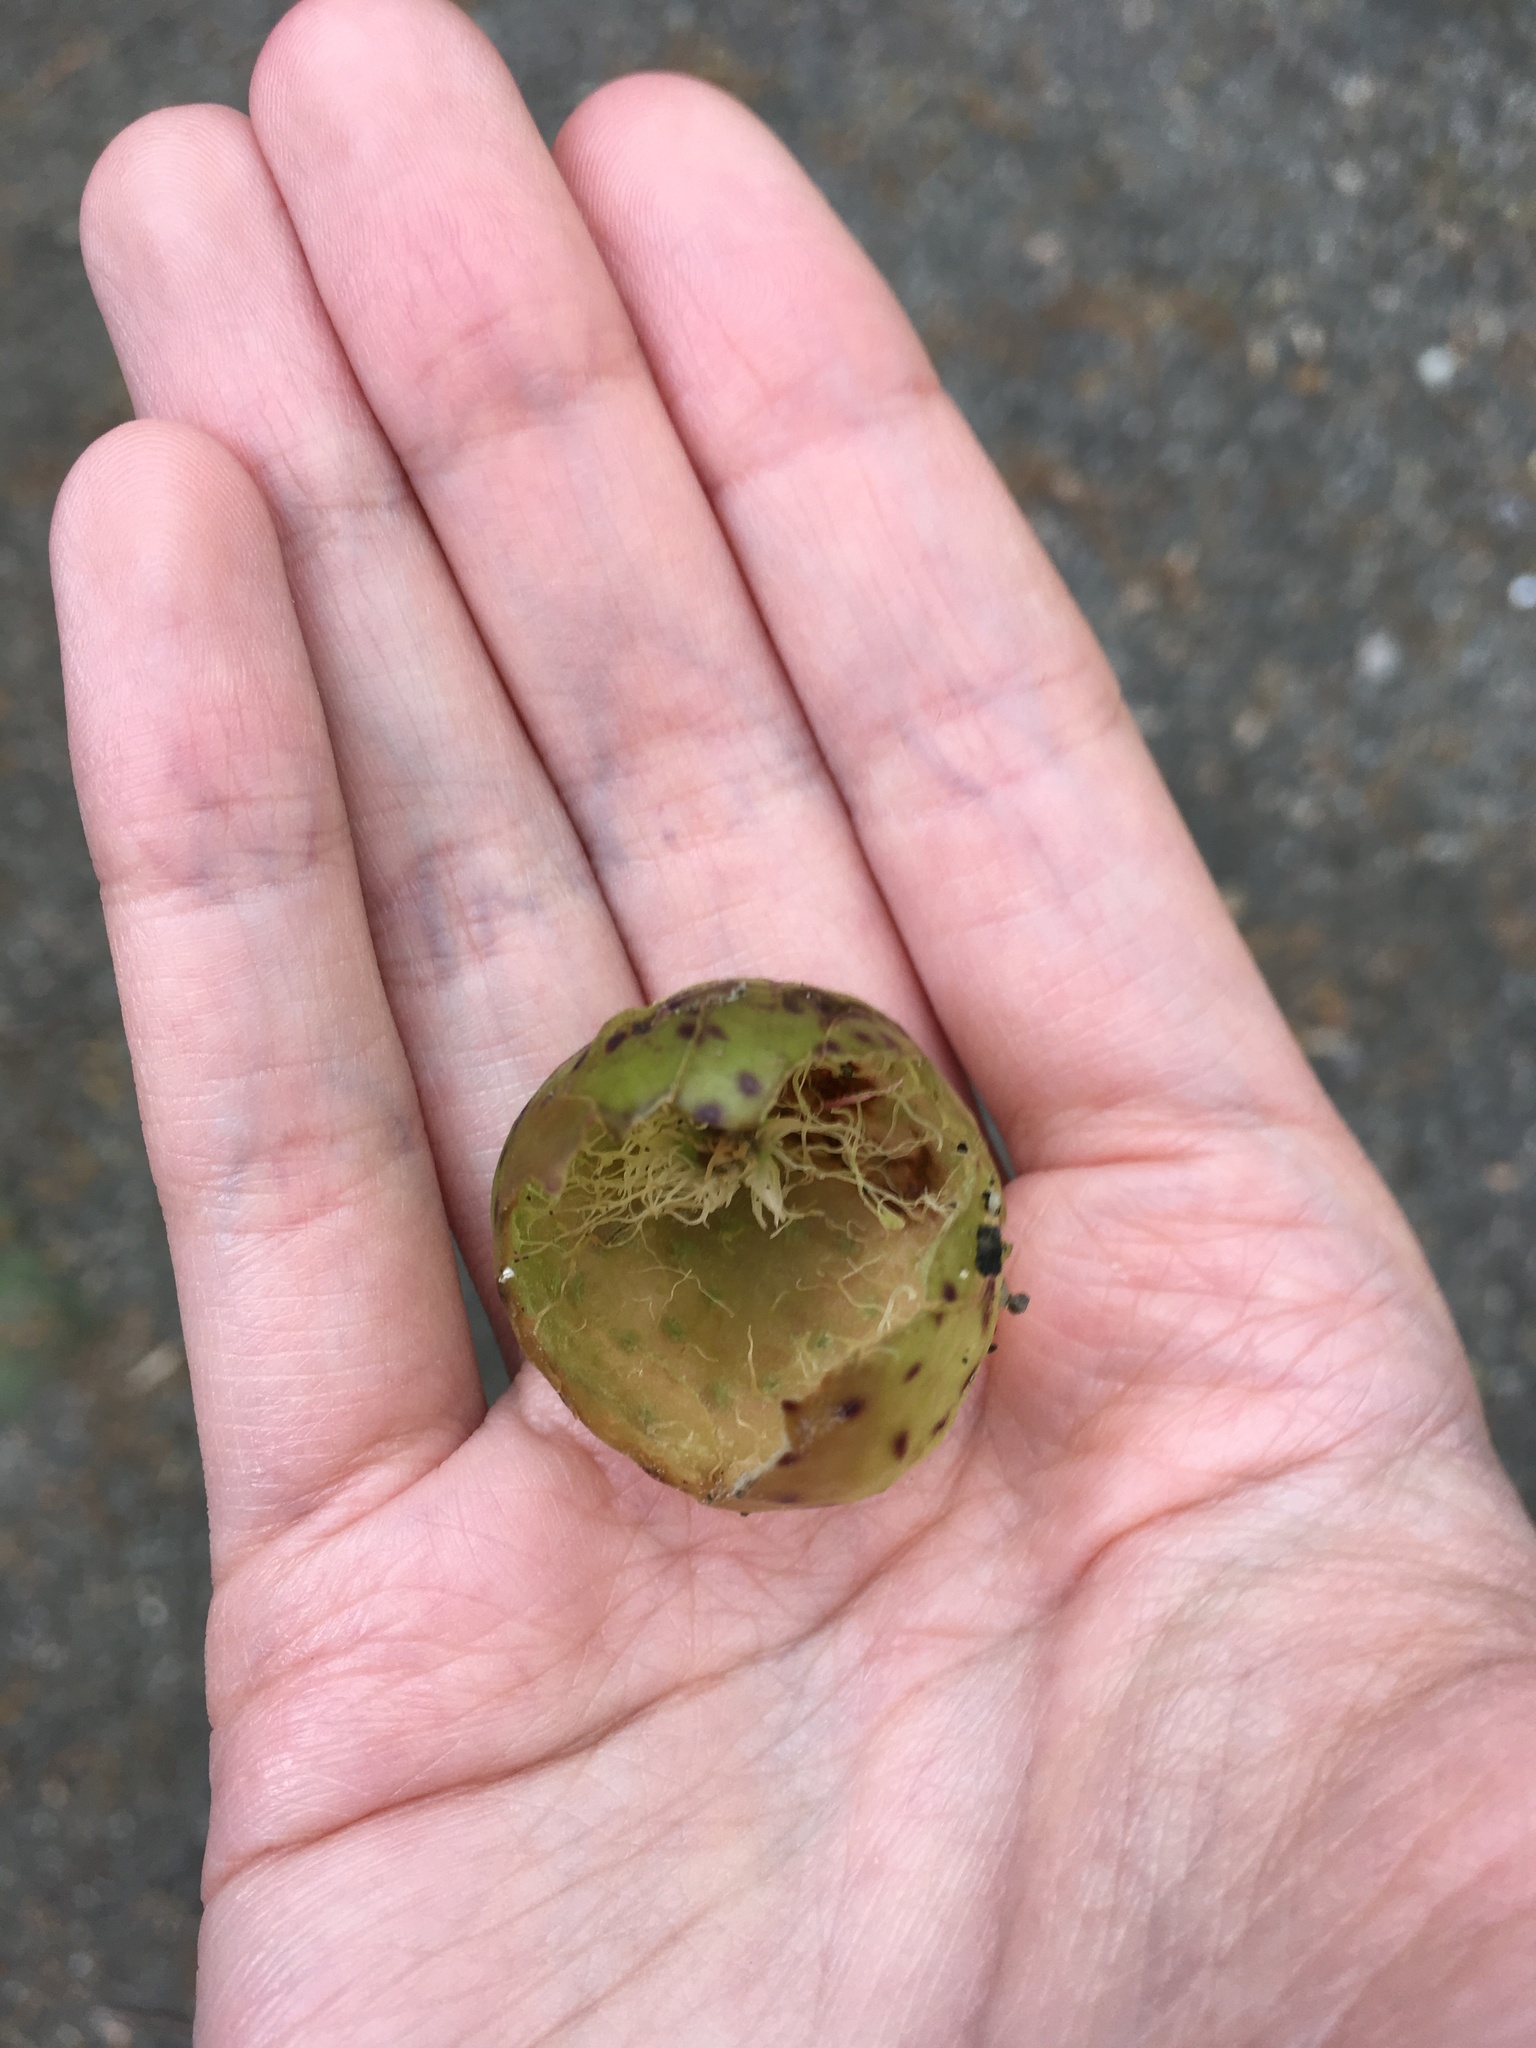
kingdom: Animalia
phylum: Arthropoda
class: Insecta
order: Hymenoptera
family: Cynipidae
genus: Amphibolips
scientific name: Amphibolips
